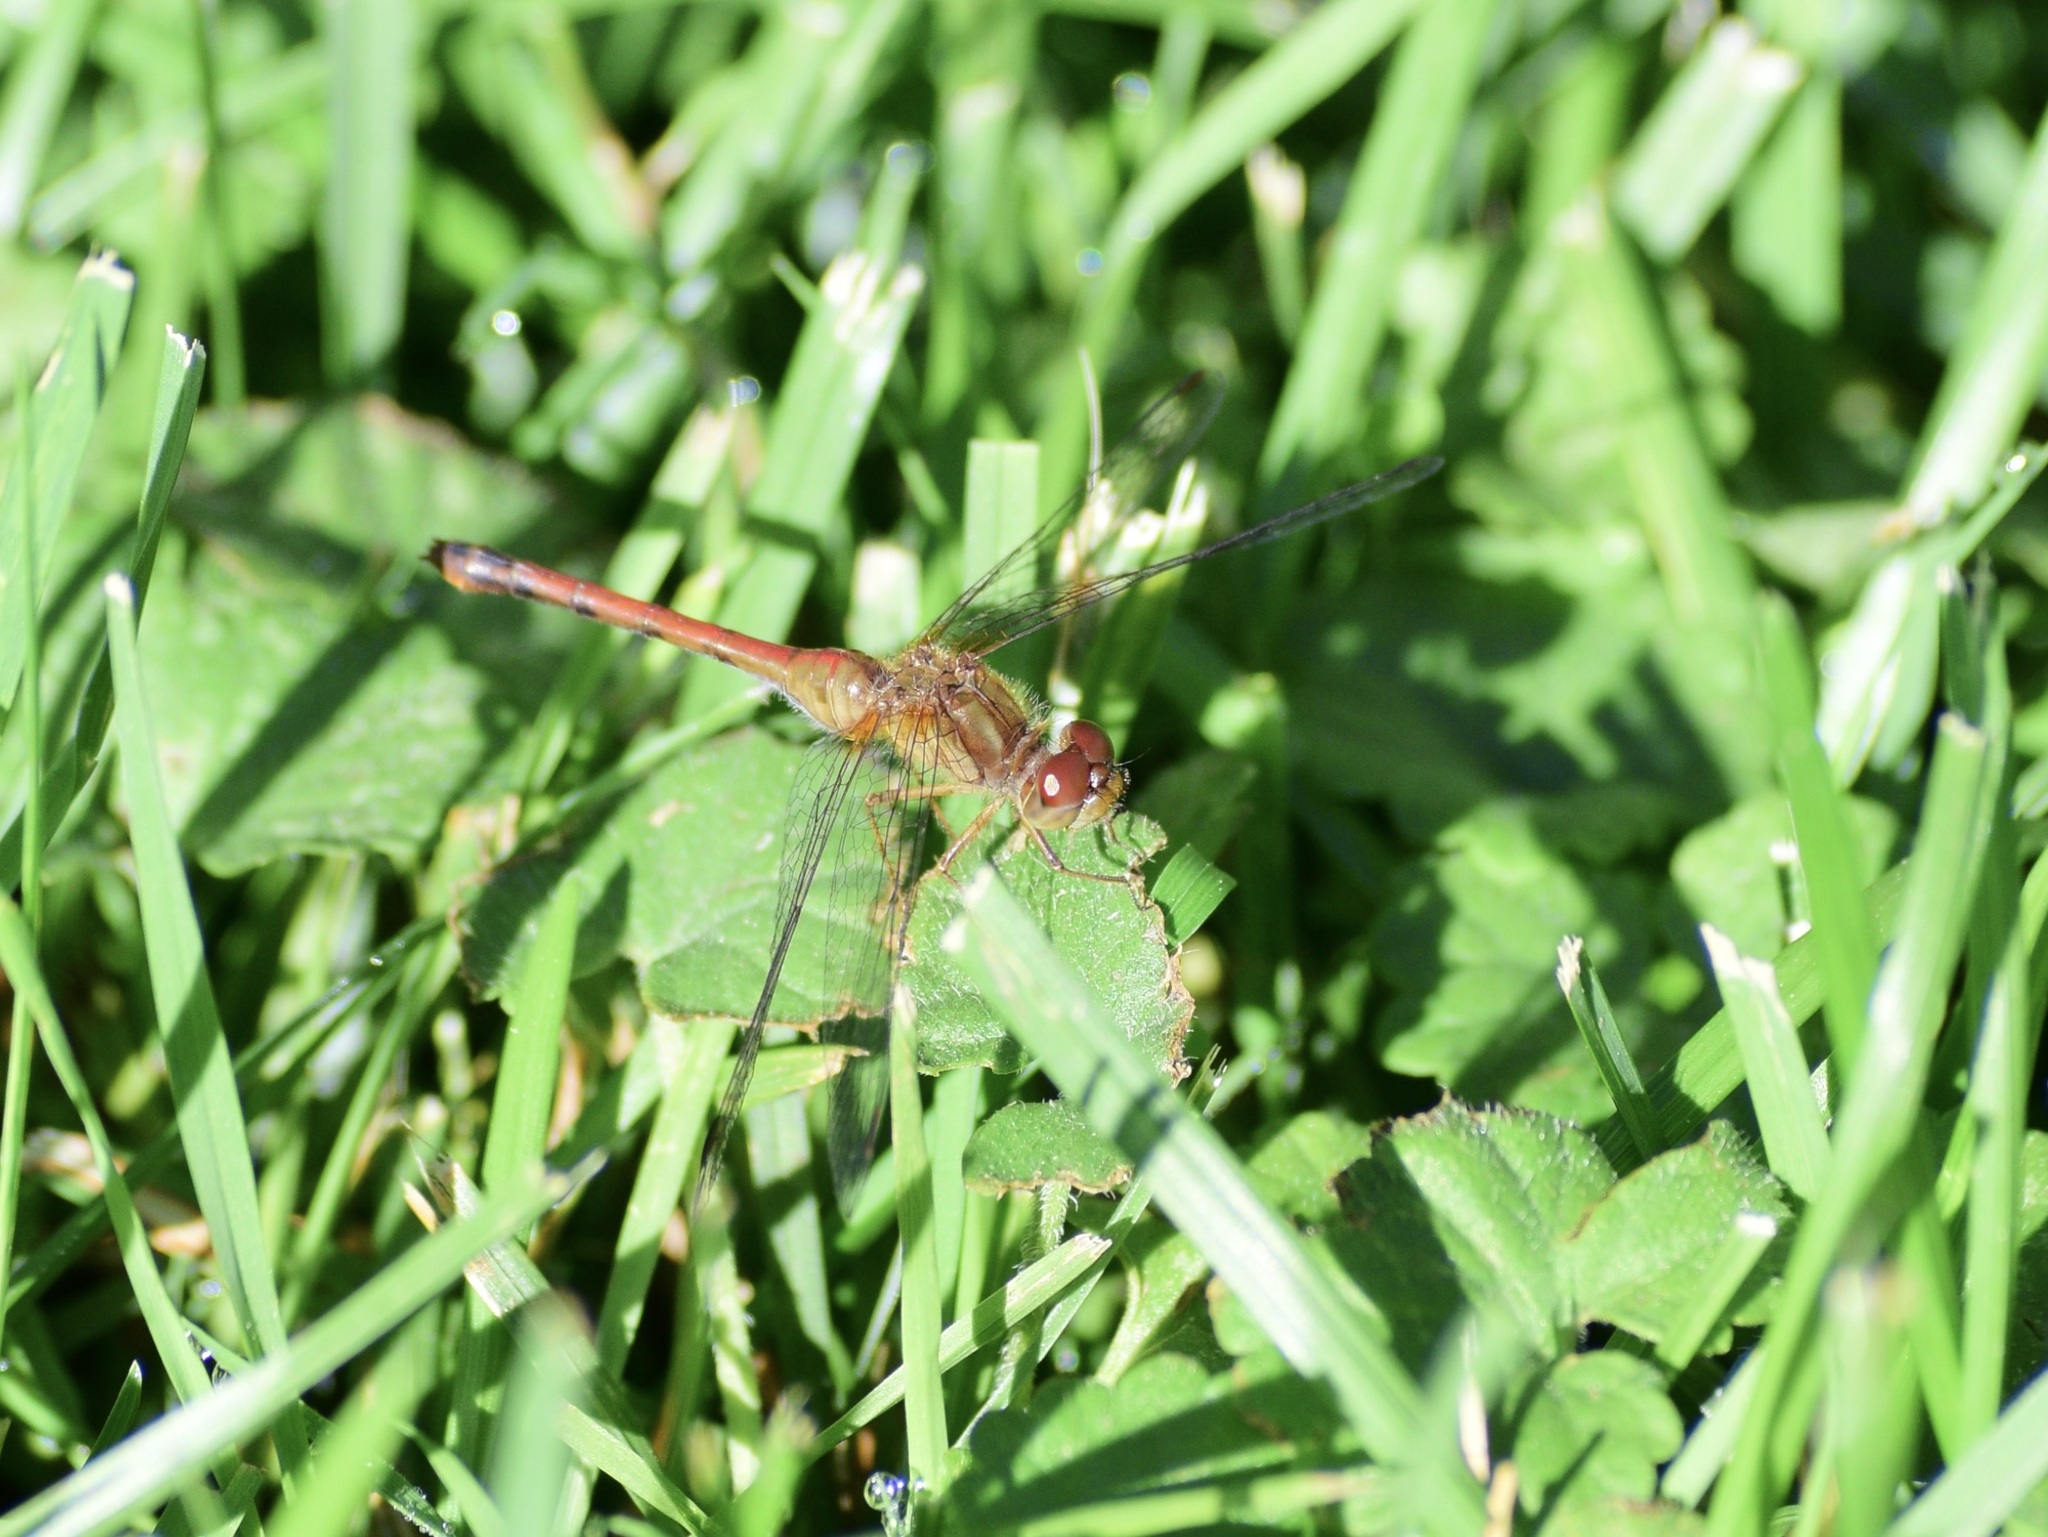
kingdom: Animalia
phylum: Arthropoda
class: Insecta
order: Odonata
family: Libellulidae
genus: Sympetrum
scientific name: Sympetrum vicinum
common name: Autumn meadowhawk
